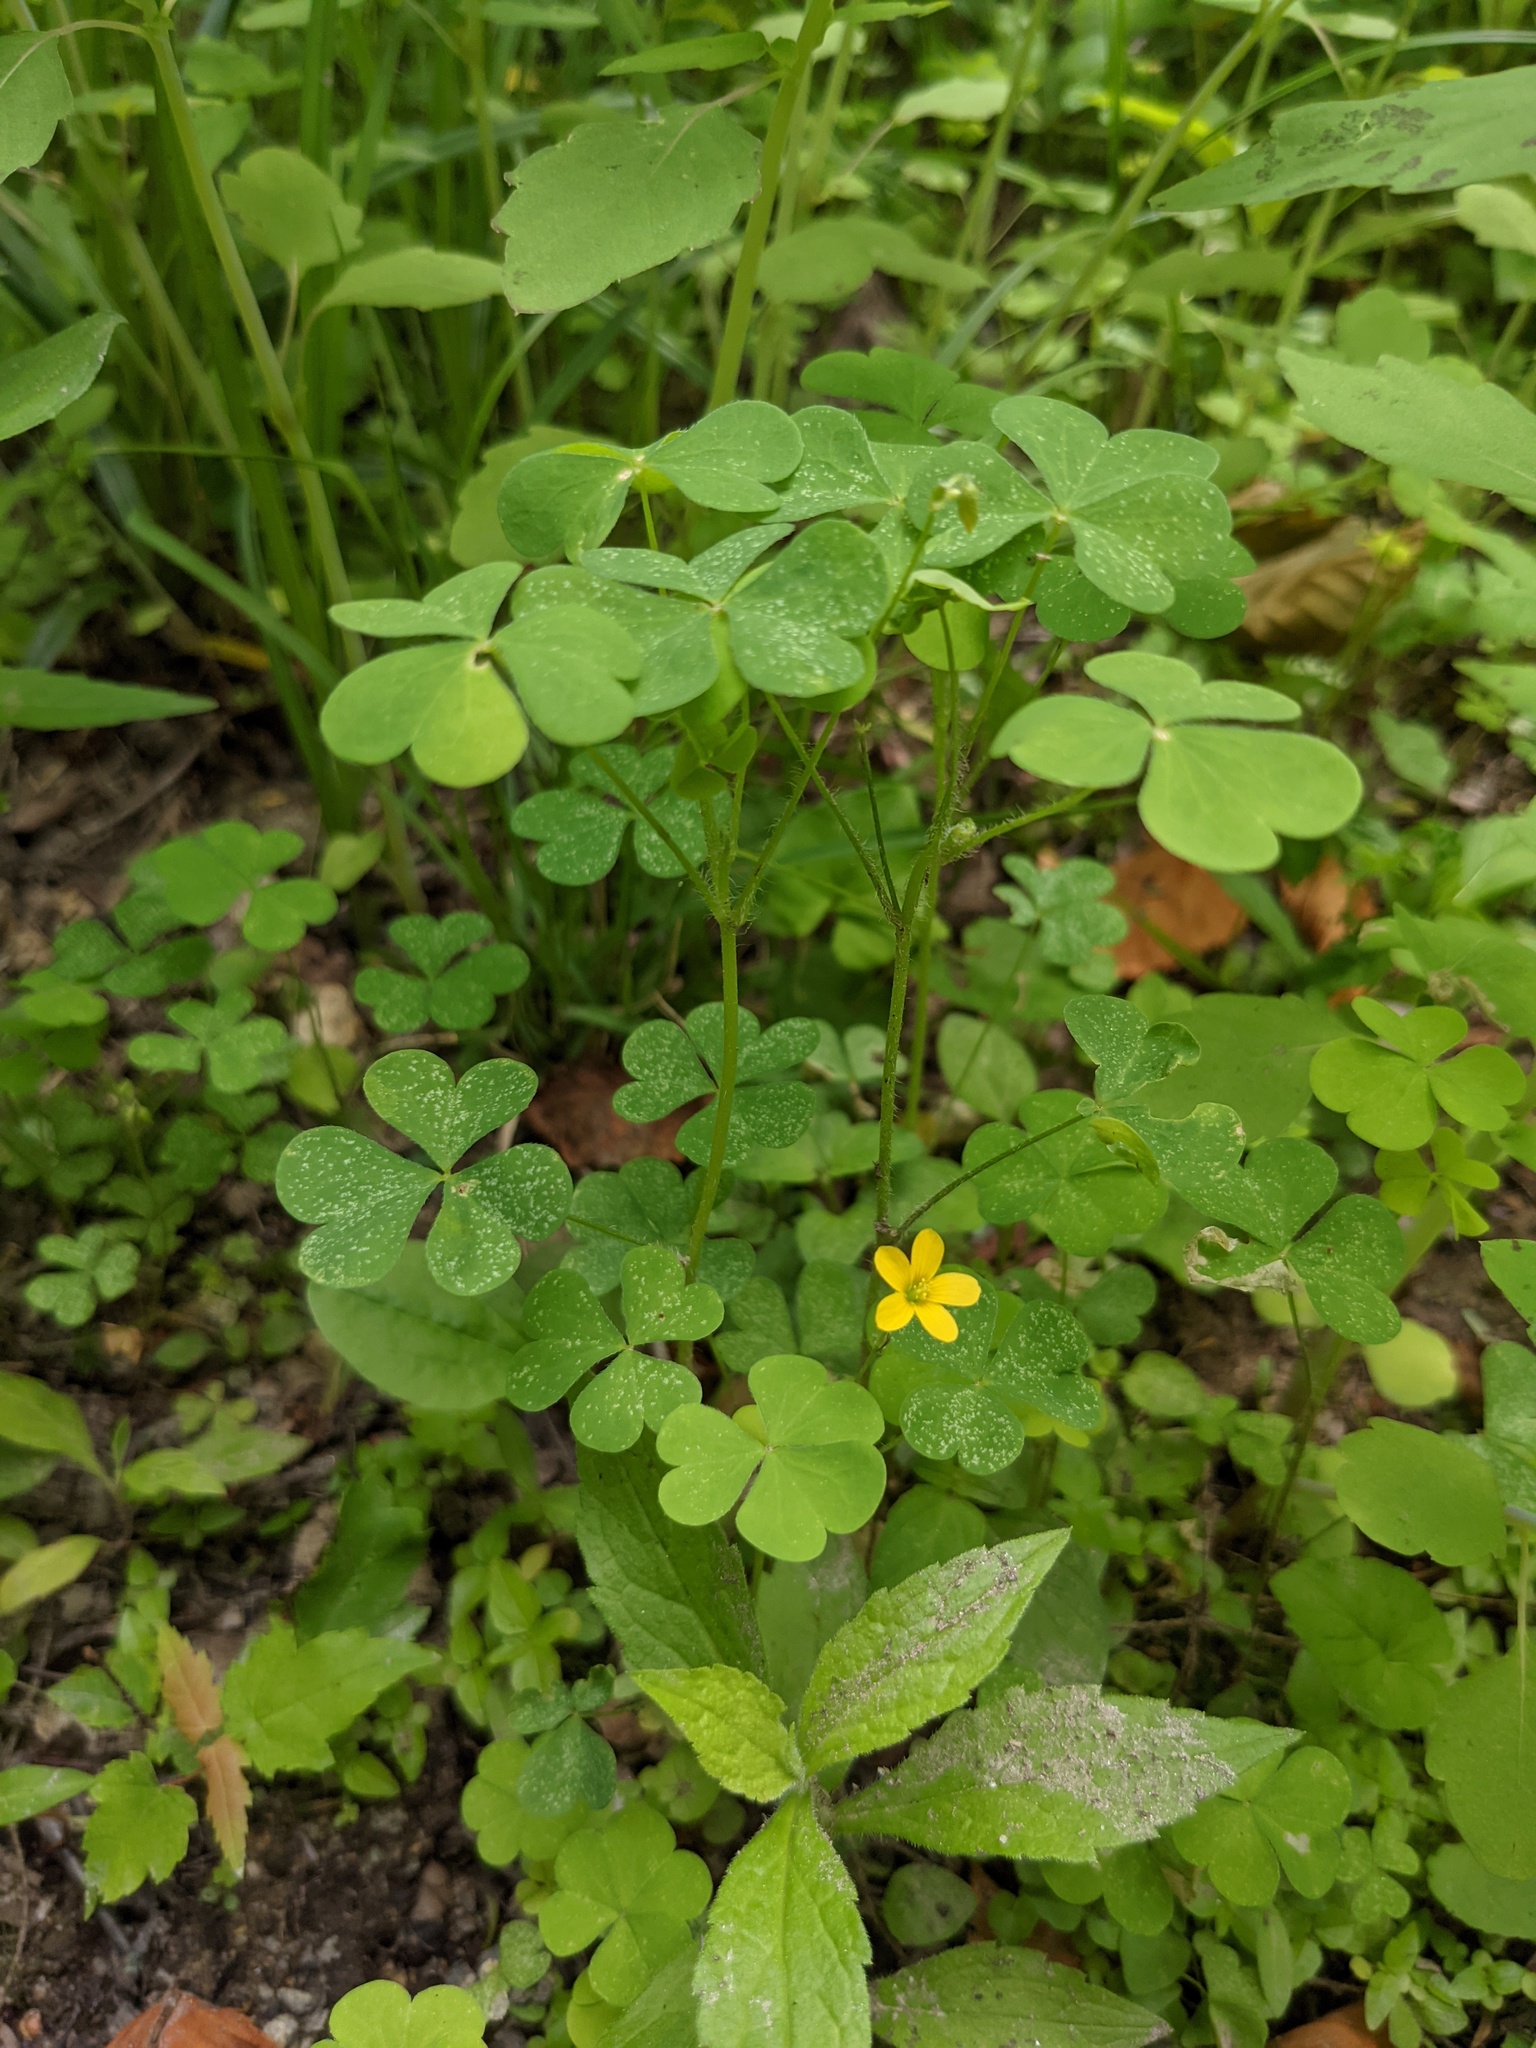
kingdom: Plantae
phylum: Tracheophyta
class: Magnoliopsida
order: Oxalidales
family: Oxalidaceae
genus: Oxalis
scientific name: Oxalis stricta
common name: Upright yellow-sorrel
